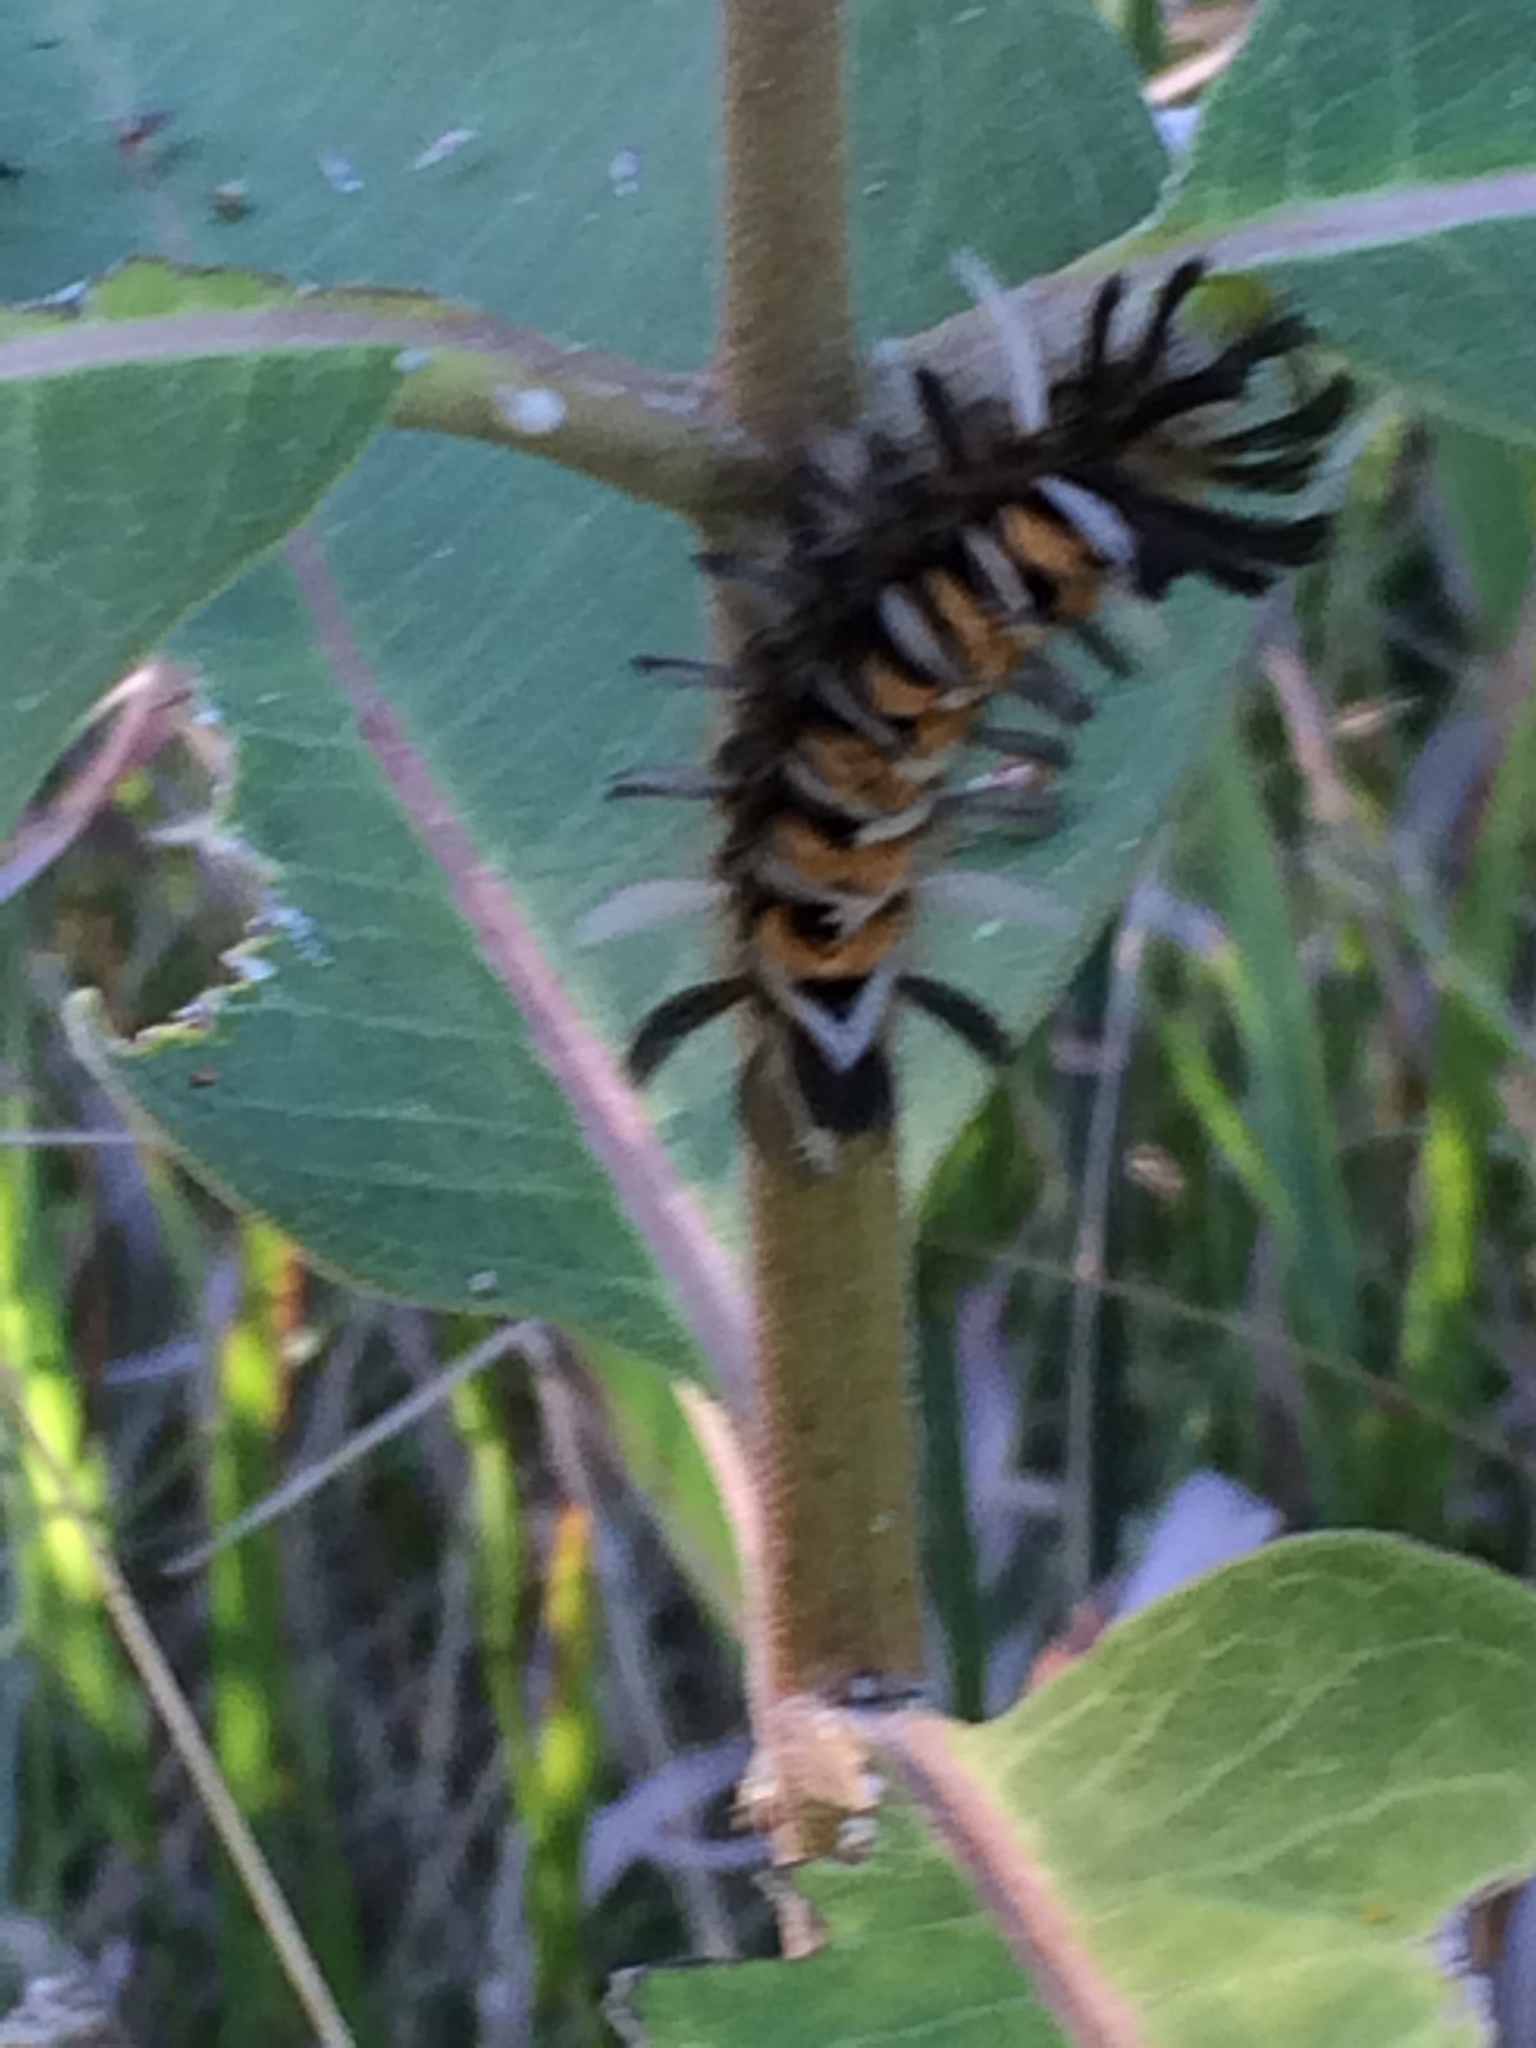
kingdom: Animalia
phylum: Arthropoda
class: Insecta
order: Lepidoptera
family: Erebidae
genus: Euchaetes
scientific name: Euchaetes egle
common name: Milkweed tussock moth
